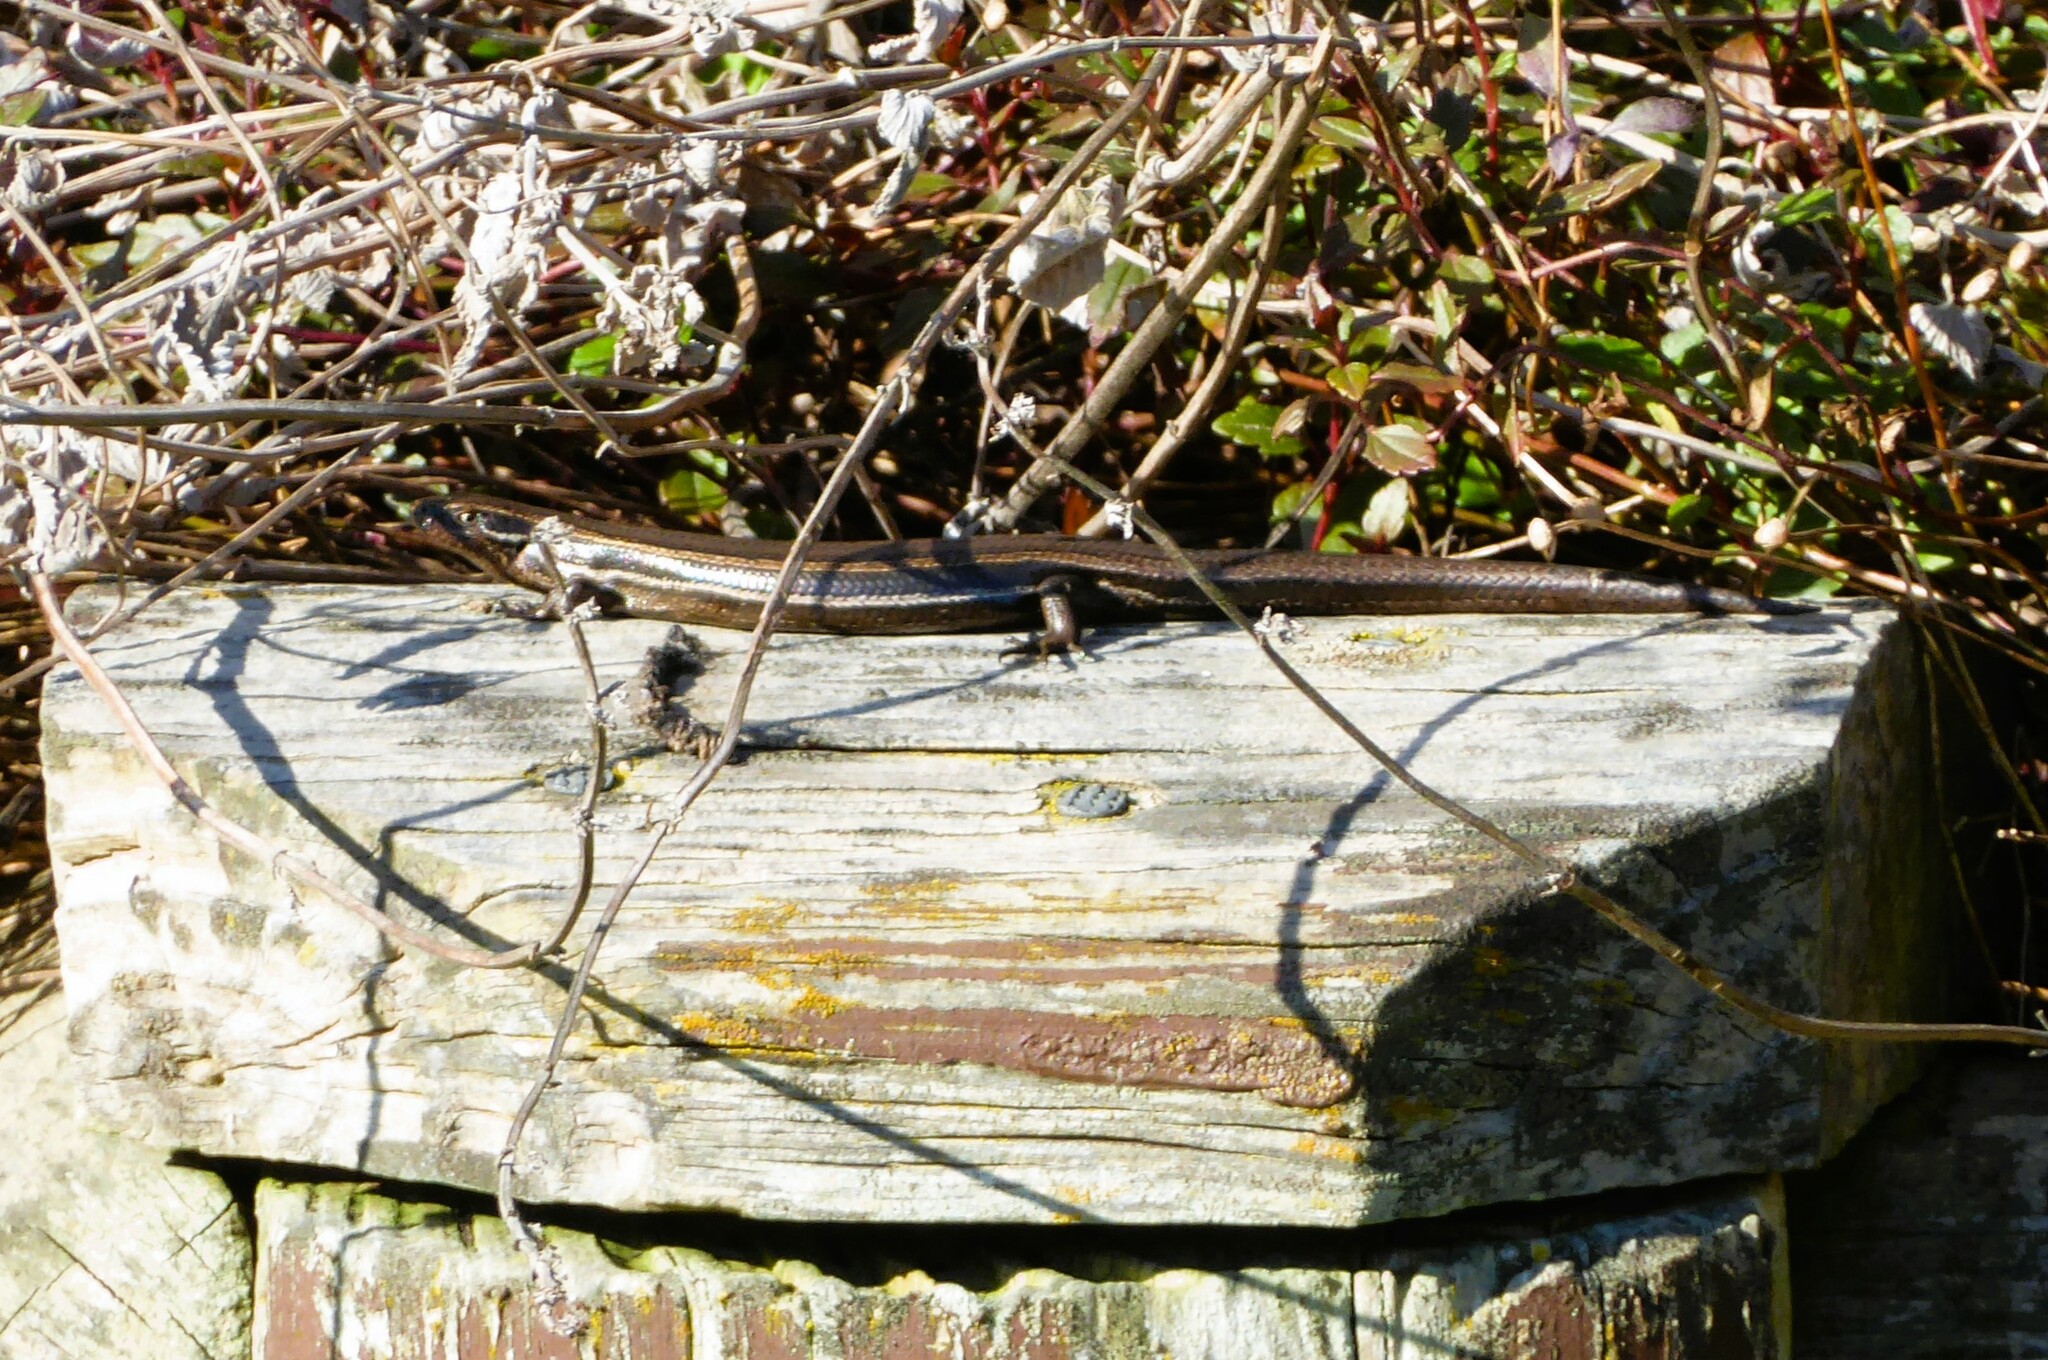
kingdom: Animalia
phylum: Chordata
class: Squamata
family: Scincidae
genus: Oligosoma
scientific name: Oligosoma polychroma
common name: Common new zealand skink
